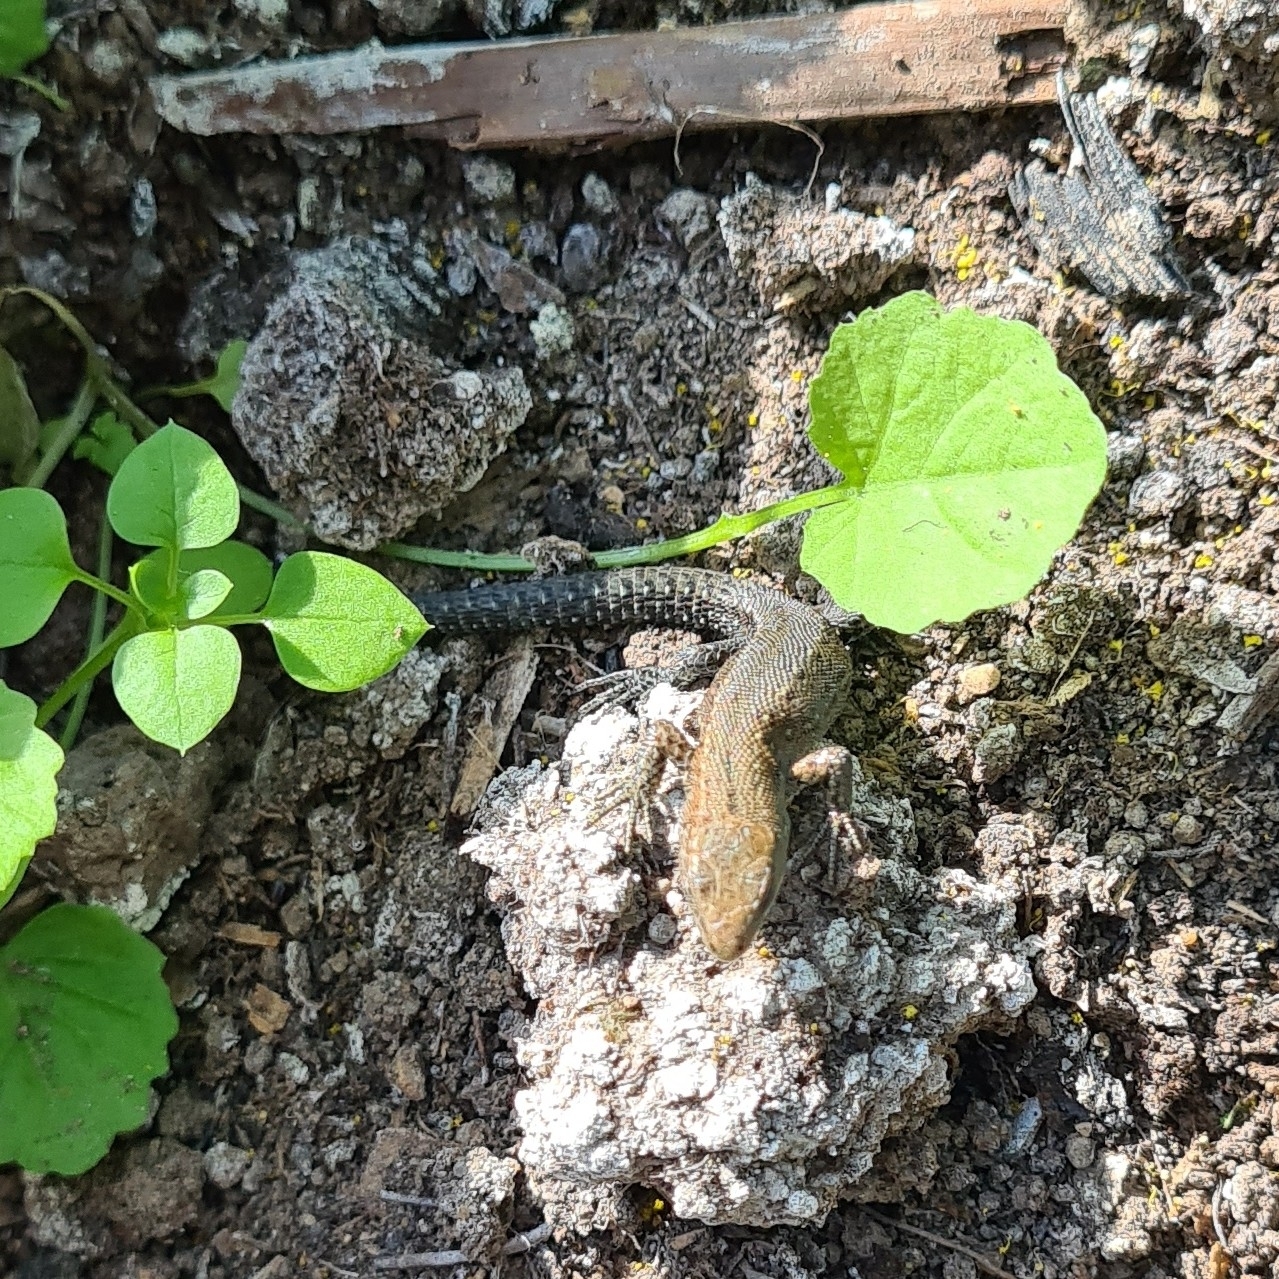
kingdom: Animalia
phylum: Chordata
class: Squamata
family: Lacertidae
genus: Zootoca
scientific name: Zootoca vivipara
